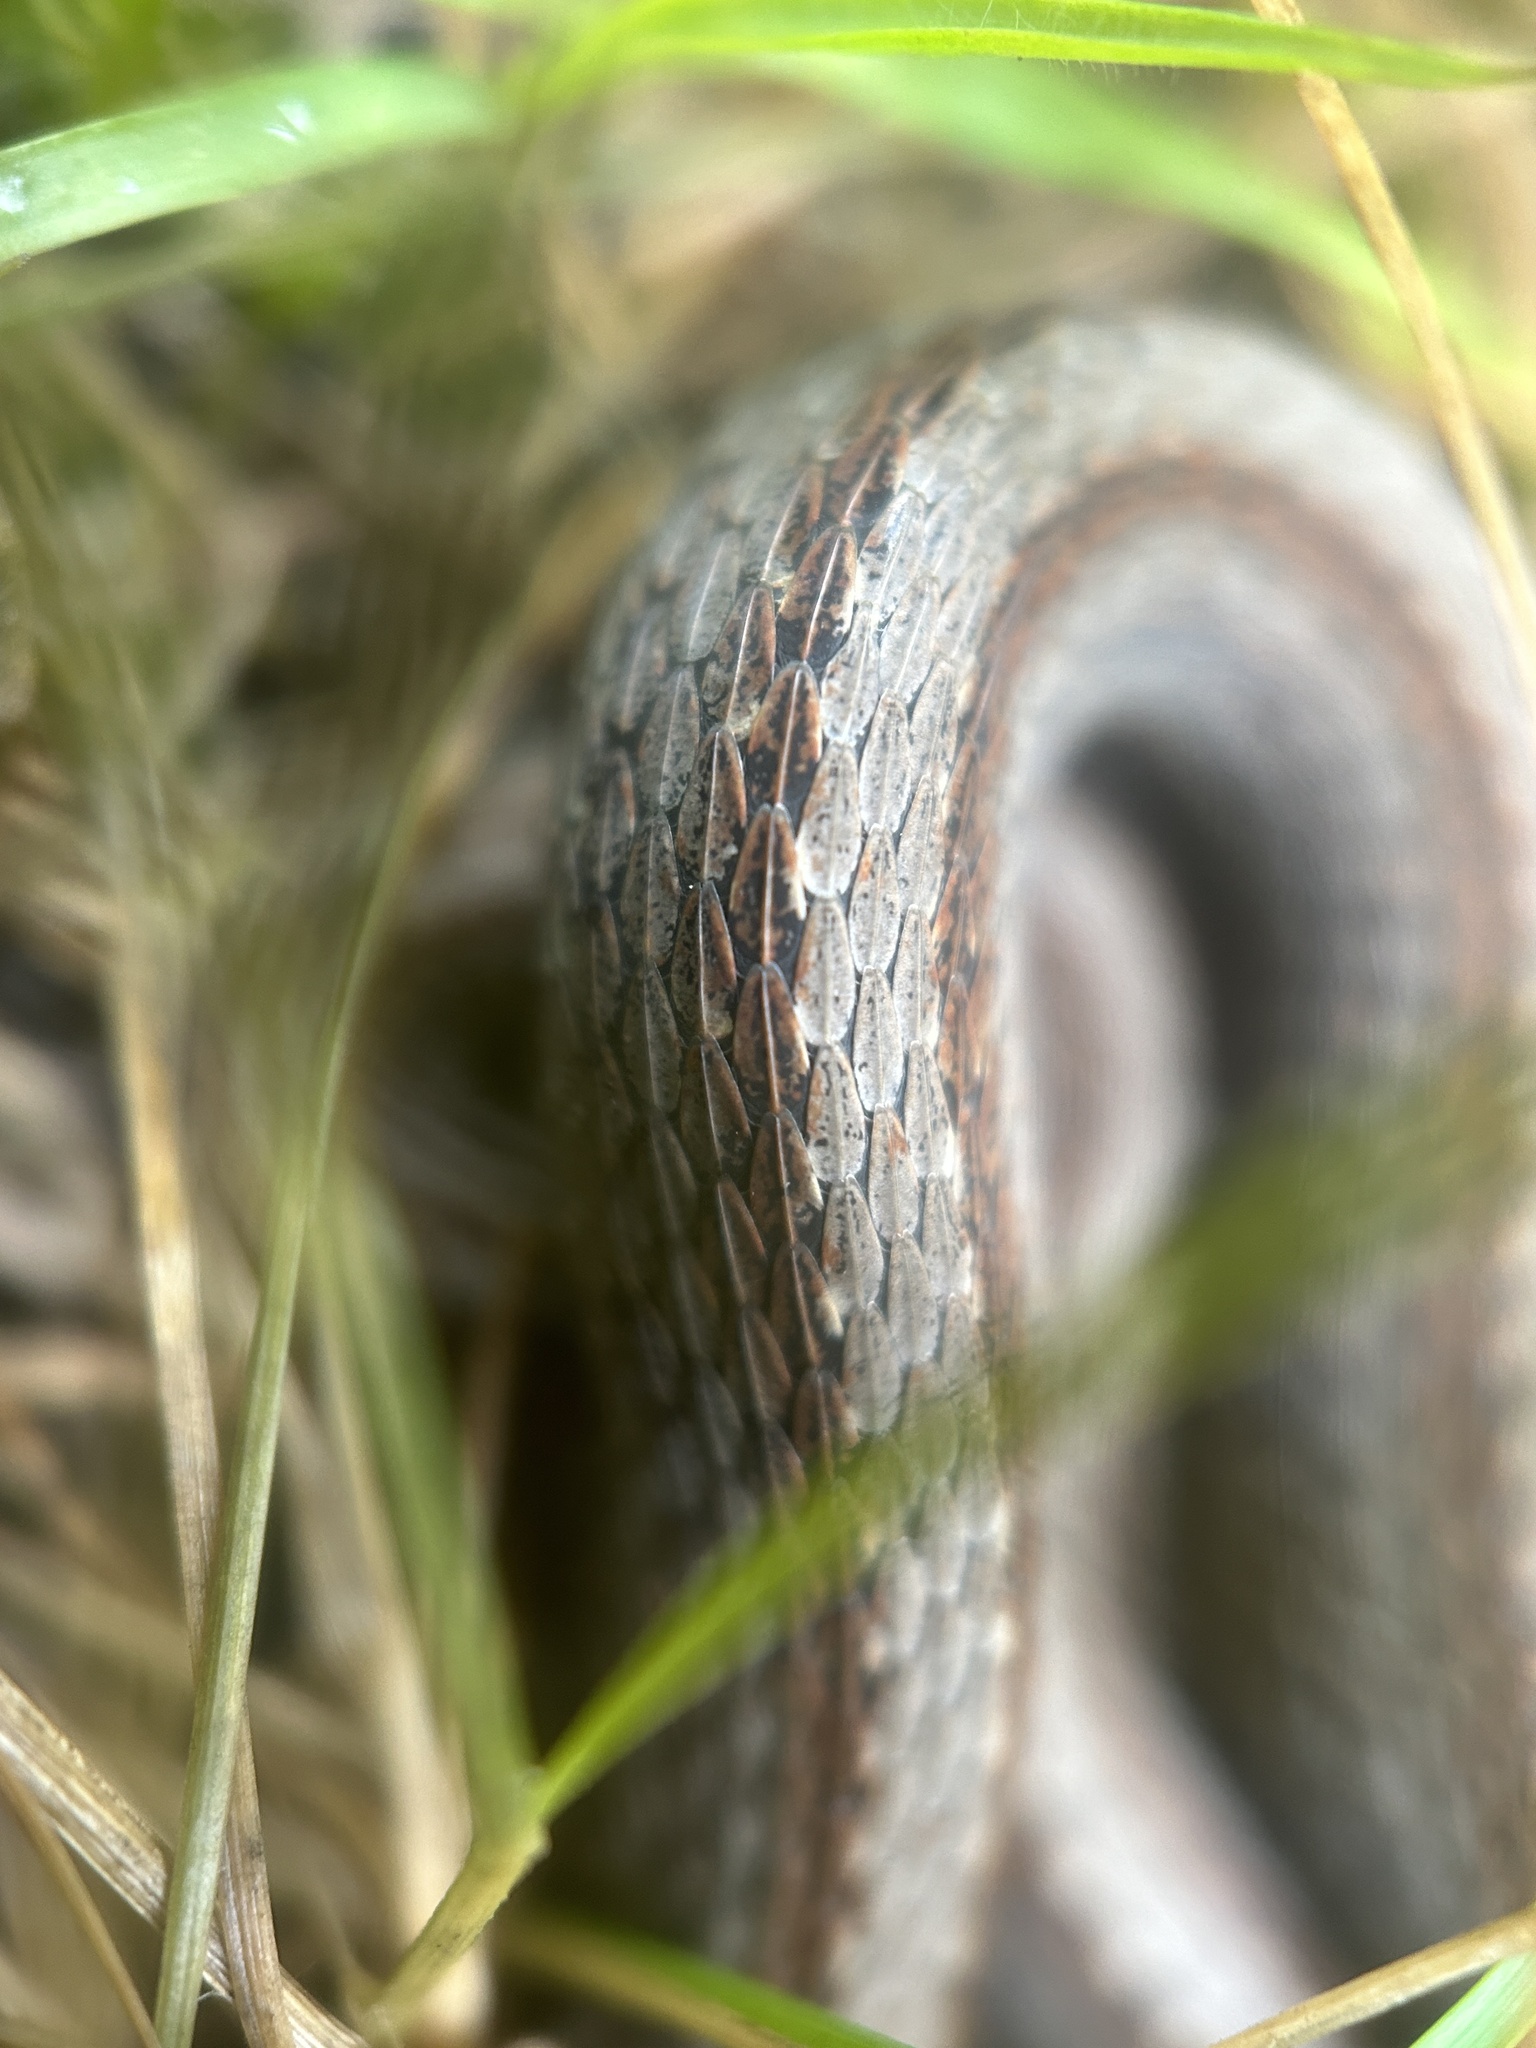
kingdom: Animalia
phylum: Chordata
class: Squamata
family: Colubridae
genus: Storeria
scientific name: Storeria occipitomaculata
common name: Redbelly snake
